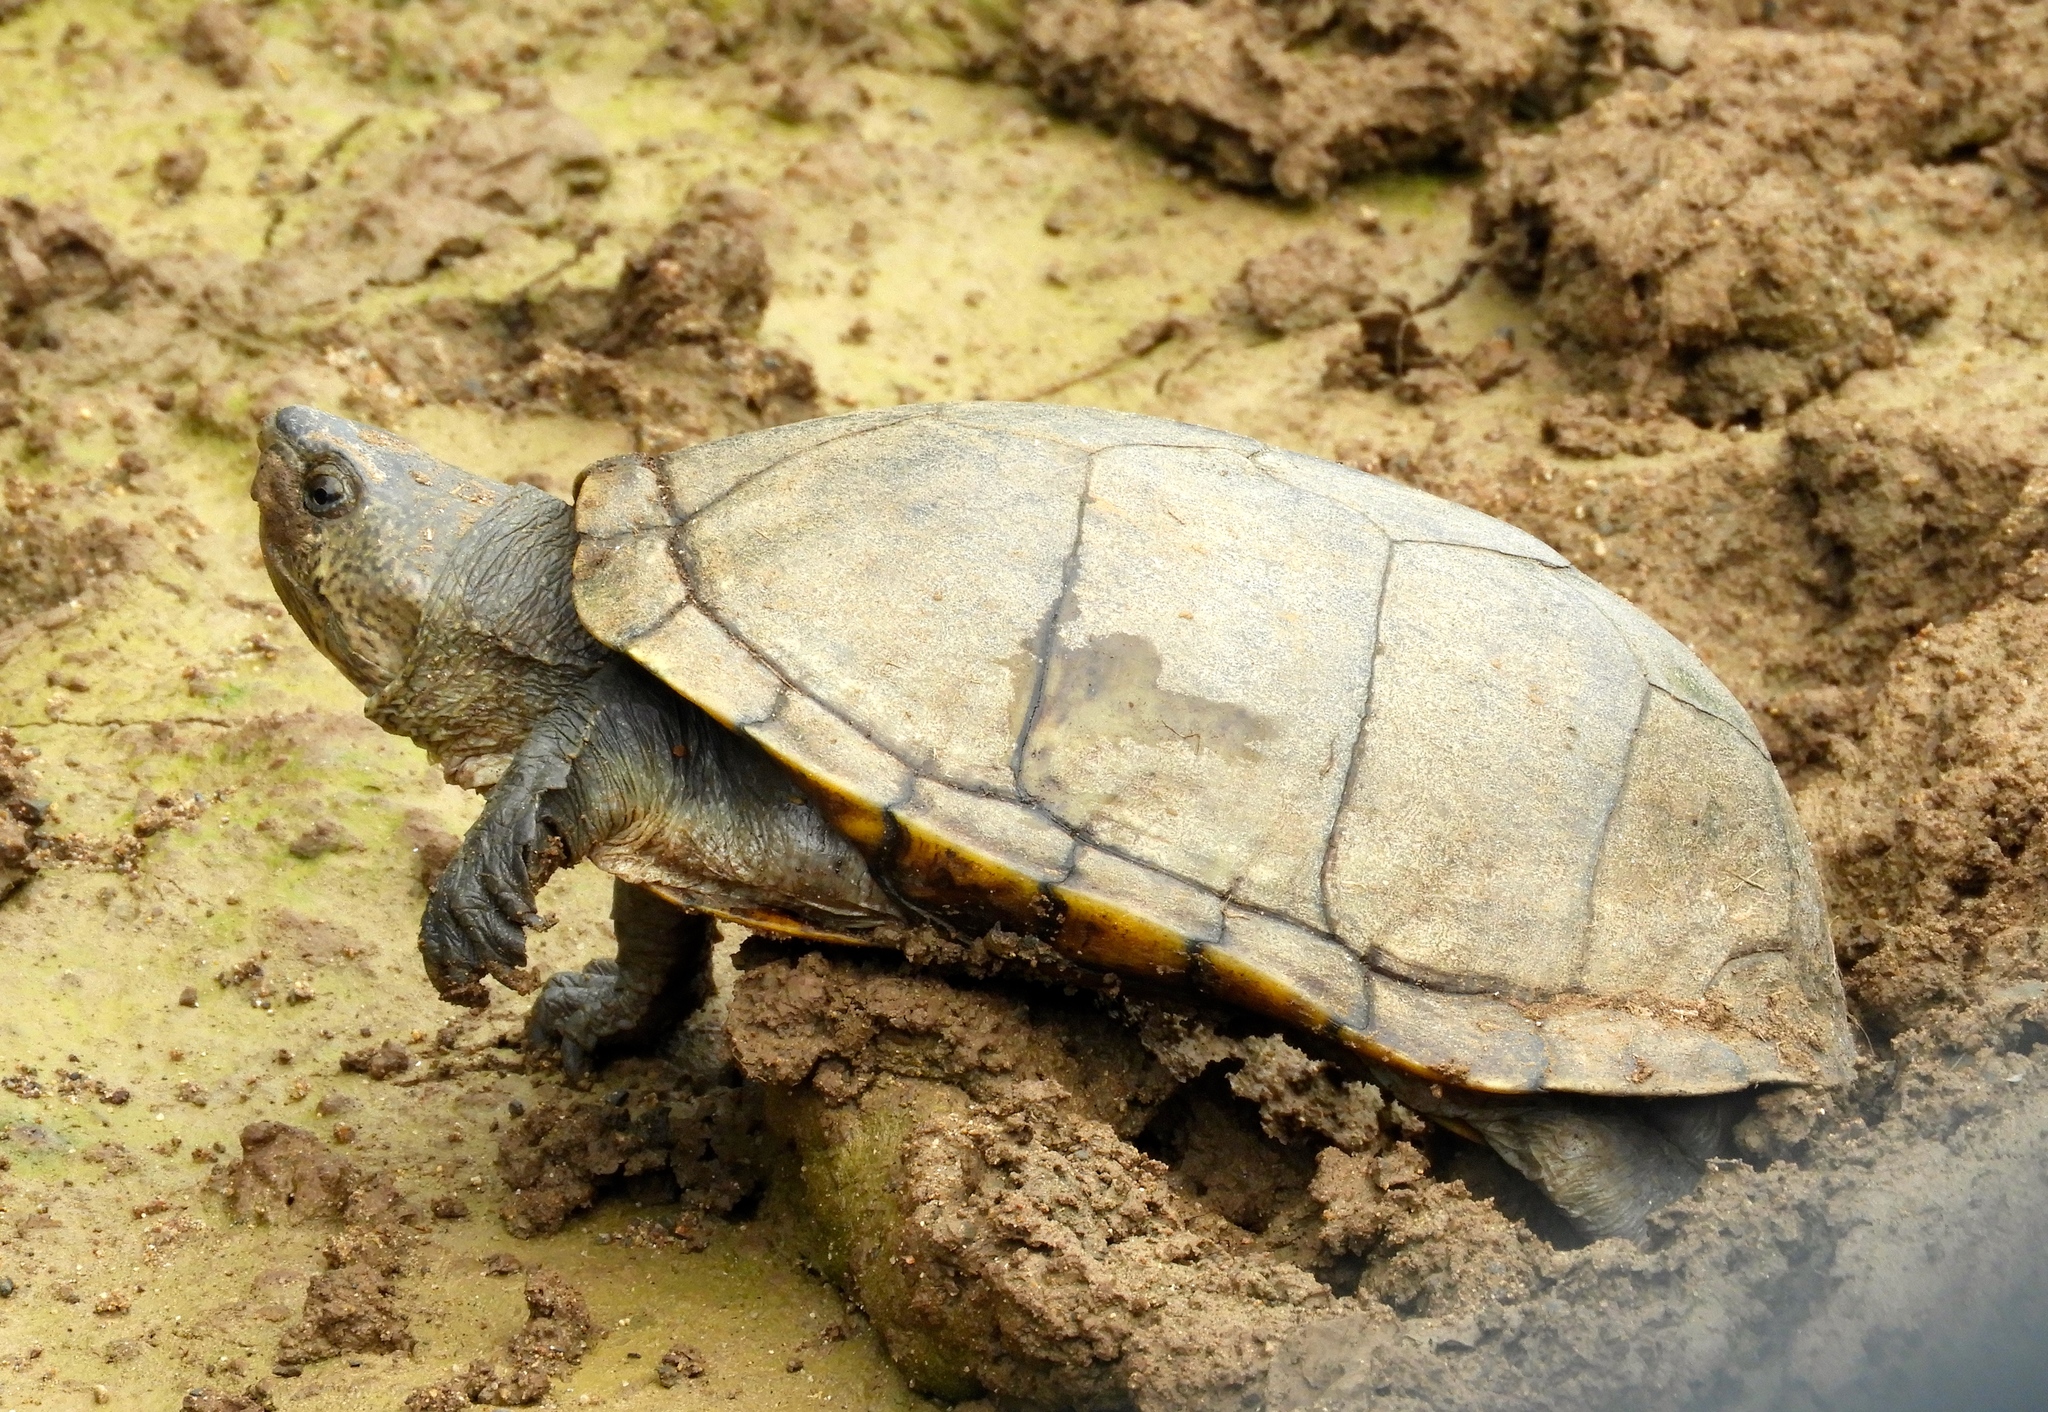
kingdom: Animalia
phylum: Chordata
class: Testudines
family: Kinosternidae
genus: Kinosternon
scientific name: Kinosternon integrum
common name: Mexican mud turtle
